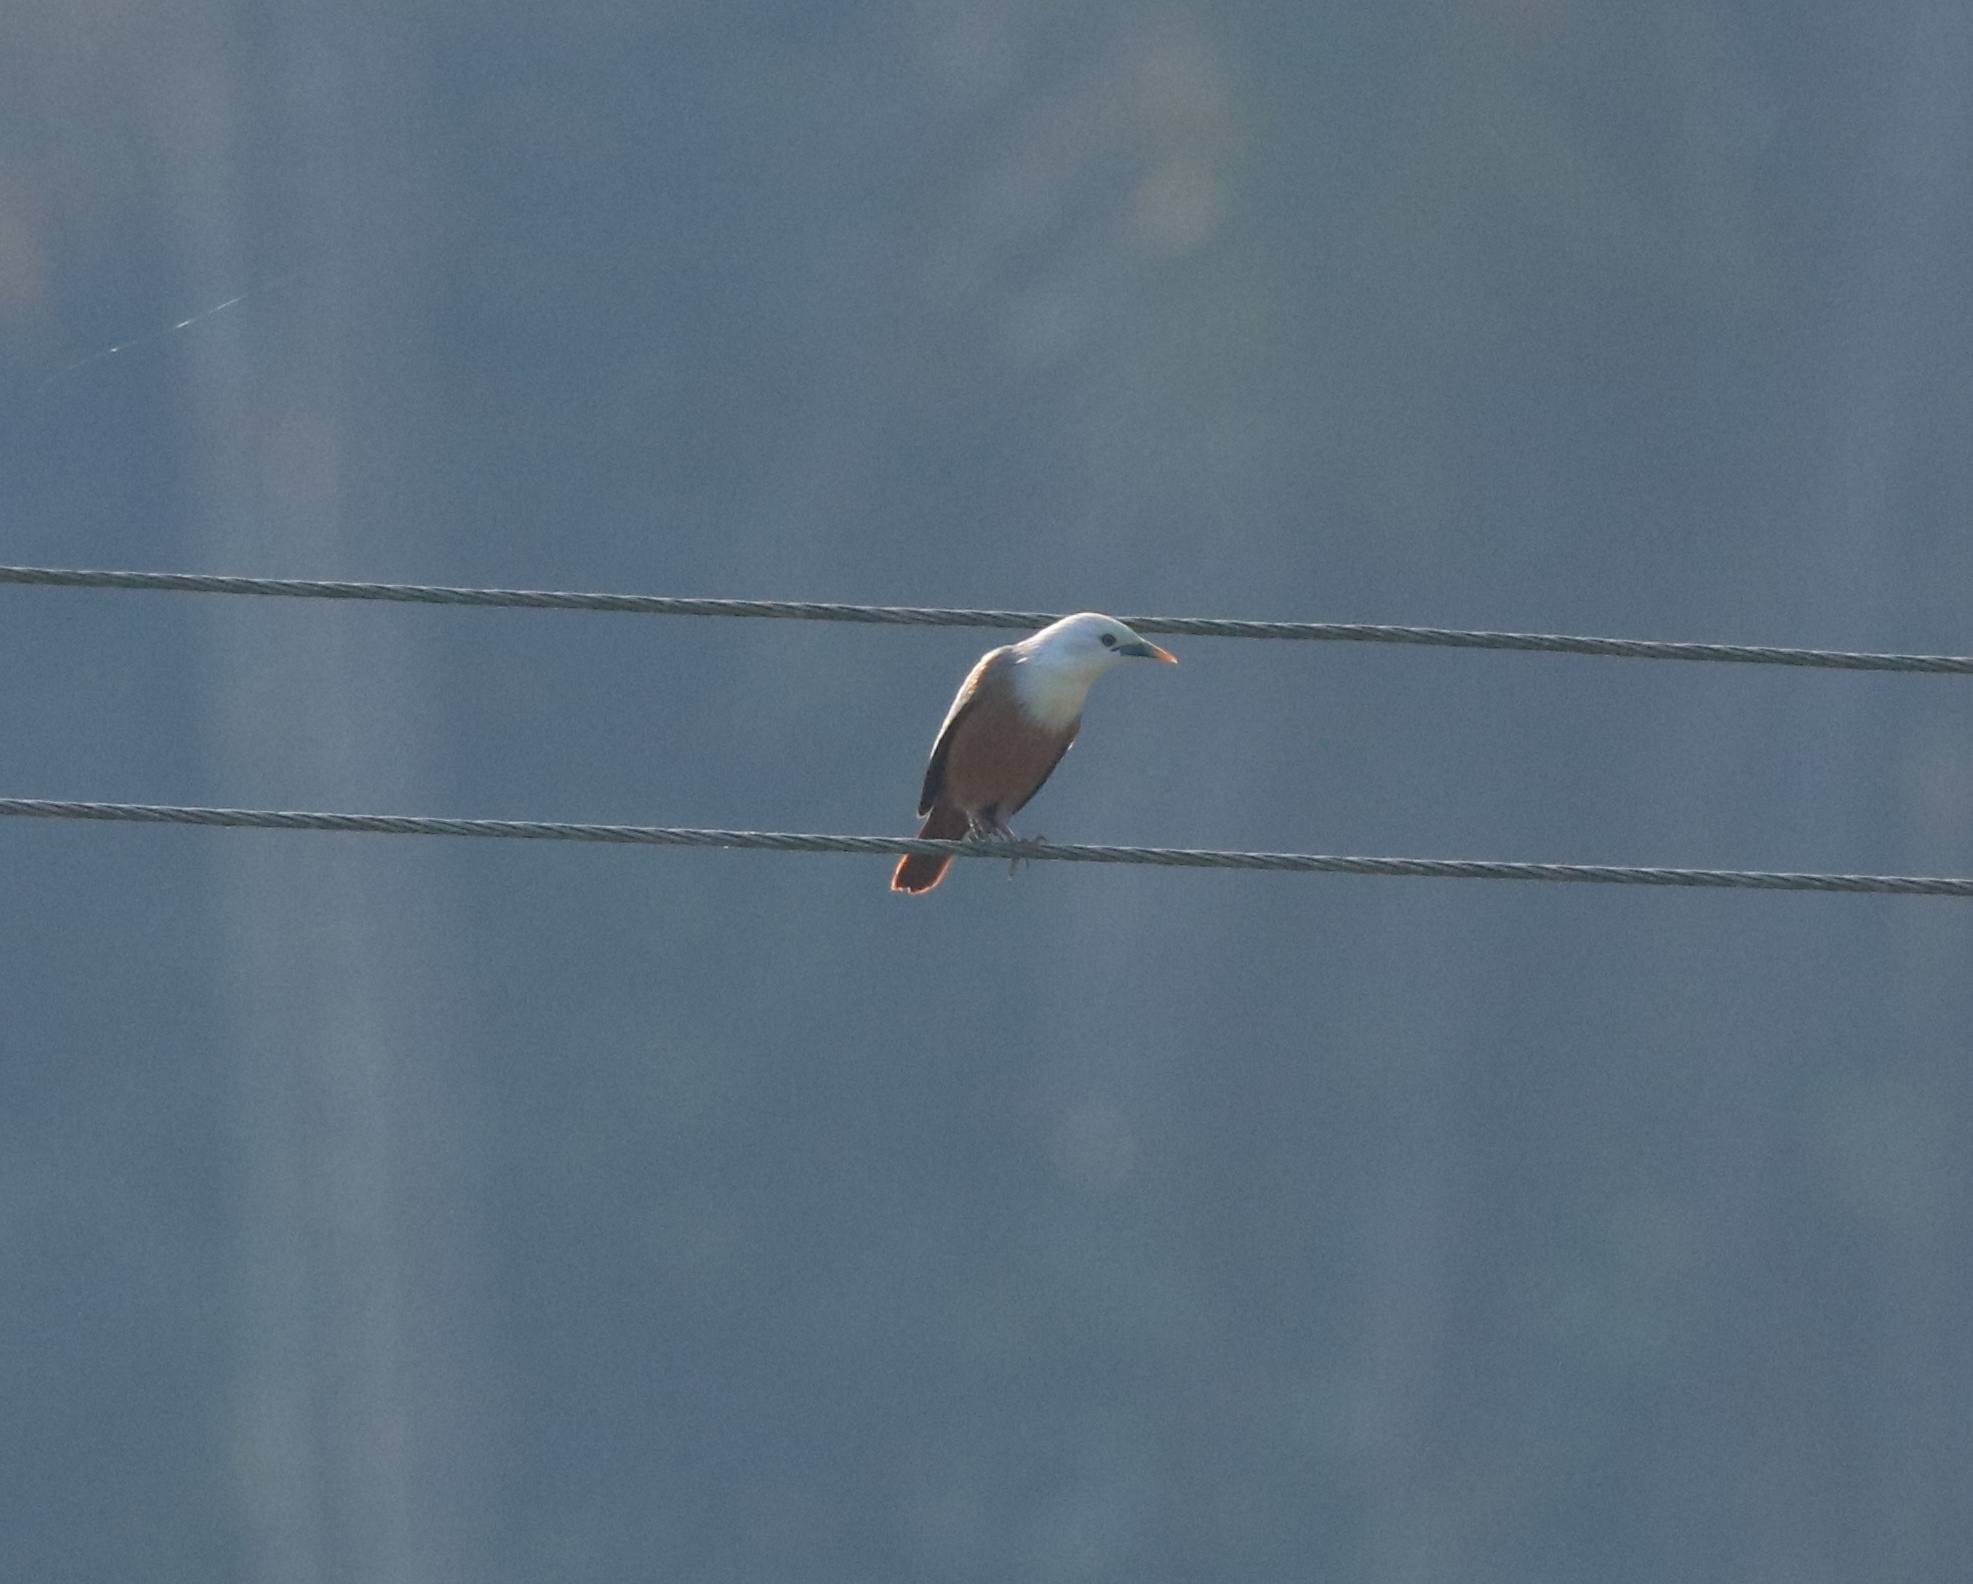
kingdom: Animalia
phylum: Chordata
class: Aves
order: Passeriformes
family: Sturnidae
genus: Sturnia
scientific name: Sturnia blythii
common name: Malabar starling
